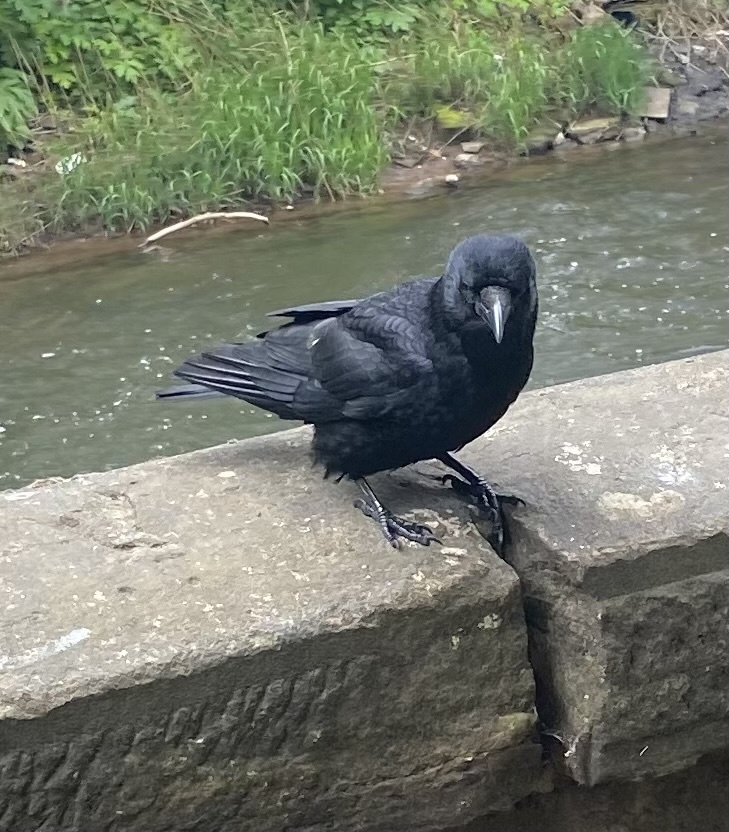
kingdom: Animalia
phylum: Chordata
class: Aves
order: Passeriformes
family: Corvidae
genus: Corvus
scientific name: Corvus corone
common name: Carrion crow
